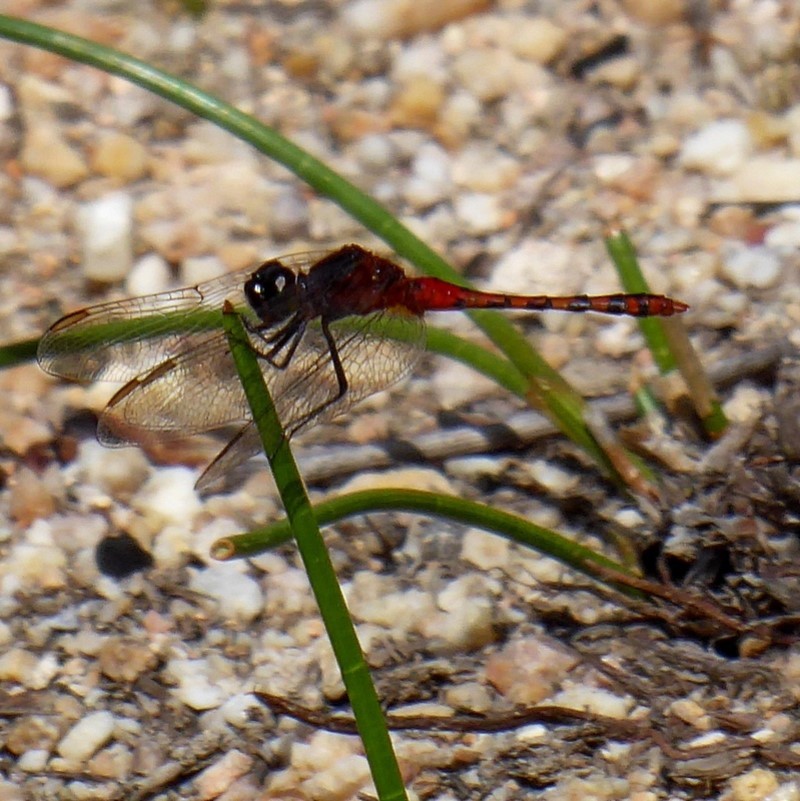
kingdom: Animalia
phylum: Arthropoda
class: Insecta
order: Odonata
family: Libellulidae
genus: Diplacodes
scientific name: Diplacodes melanopsis
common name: Black-faced percher
